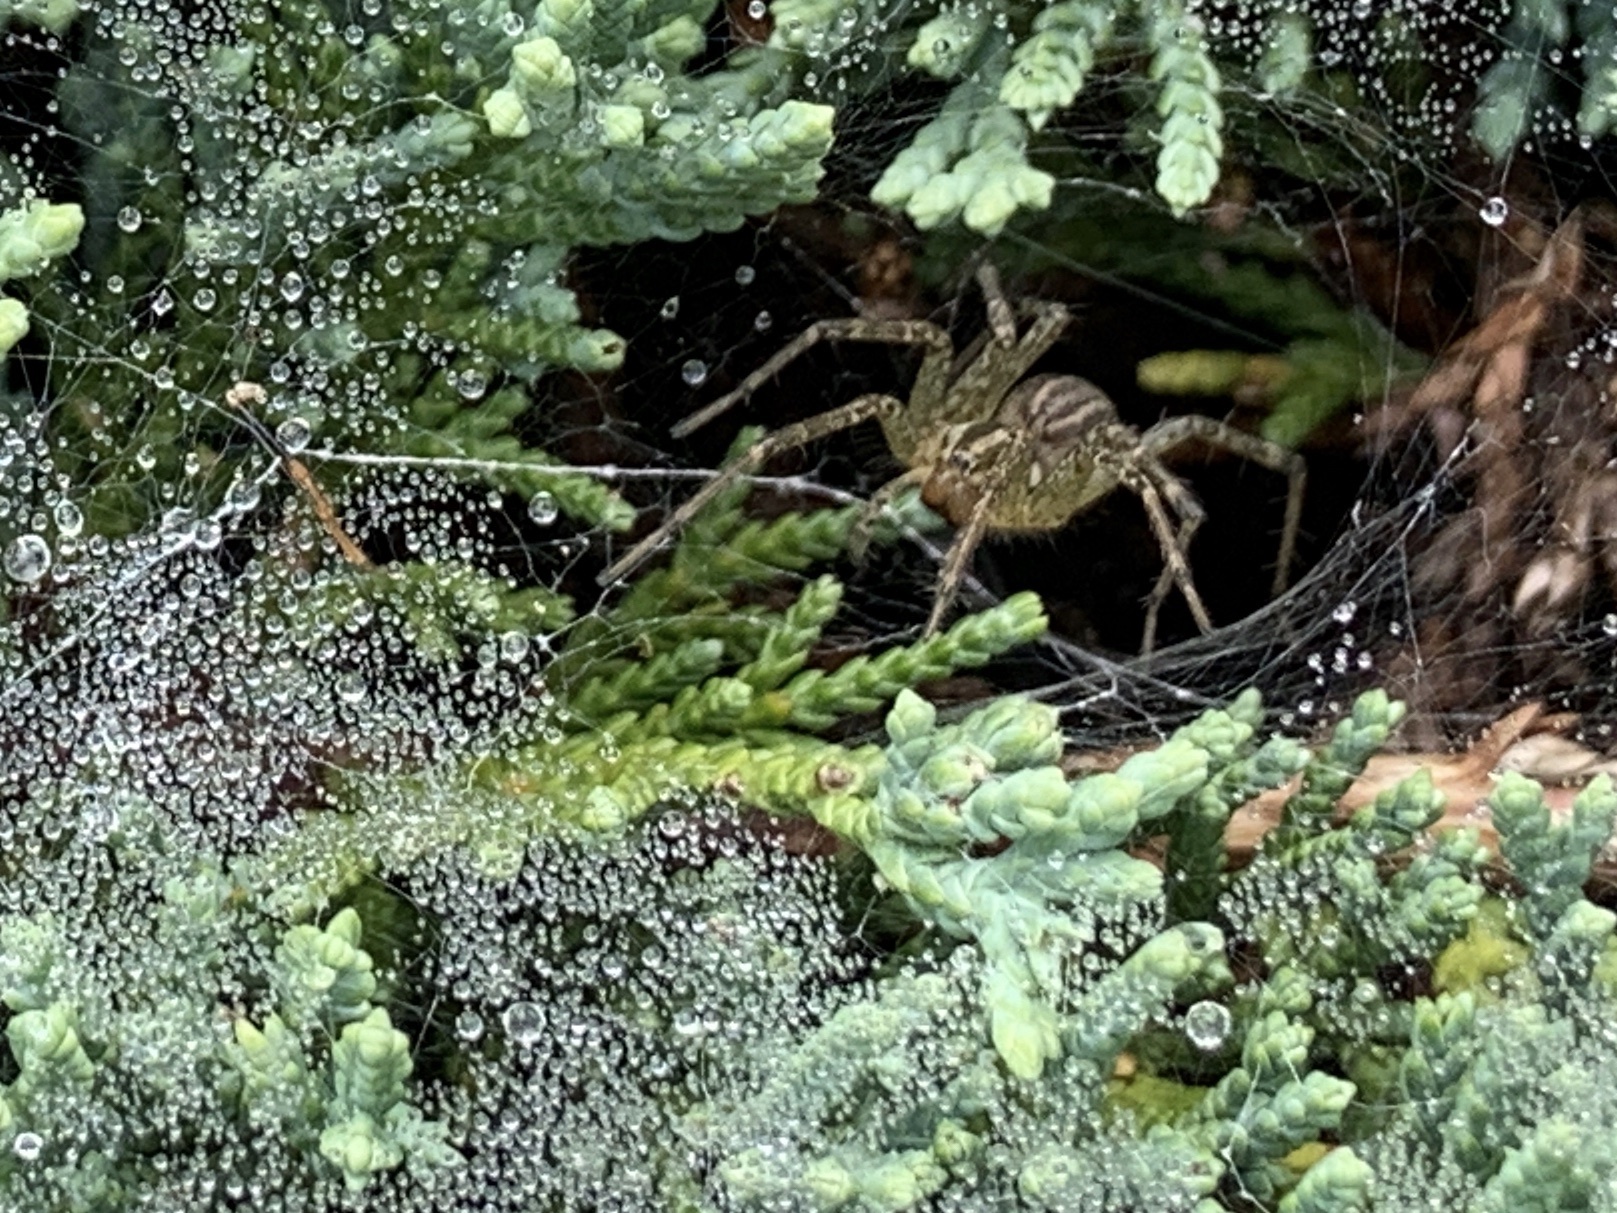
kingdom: Animalia
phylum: Arthropoda
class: Arachnida
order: Araneae
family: Agelenidae
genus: Agelenopsis
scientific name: Agelenopsis
